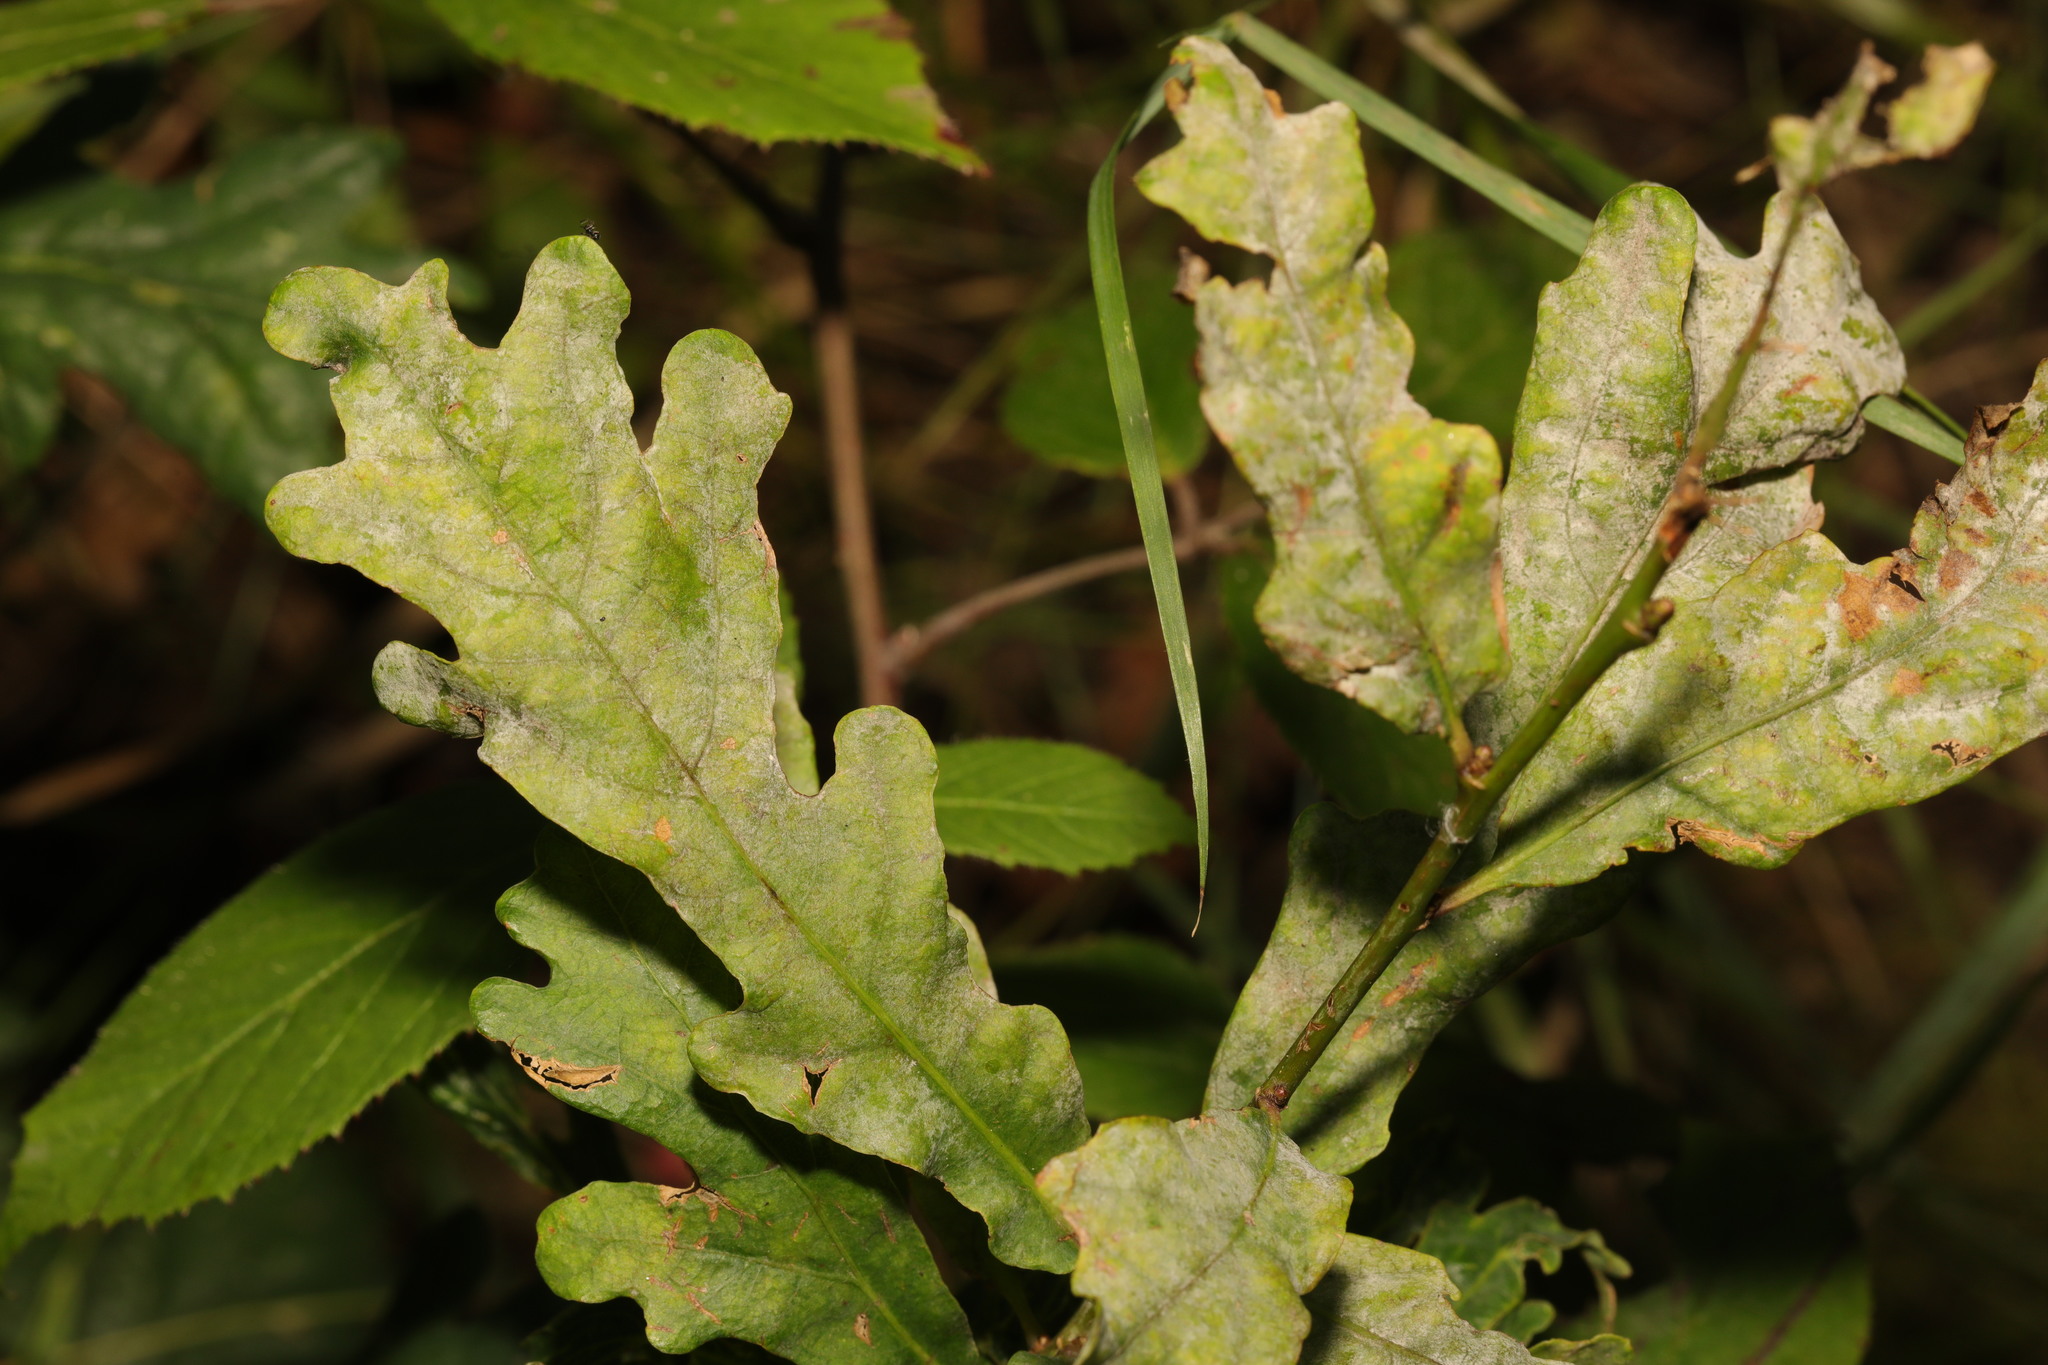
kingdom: Plantae
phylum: Tracheophyta
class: Magnoliopsida
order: Fagales
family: Fagaceae
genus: Quercus
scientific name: Quercus robur
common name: Pedunculate oak
